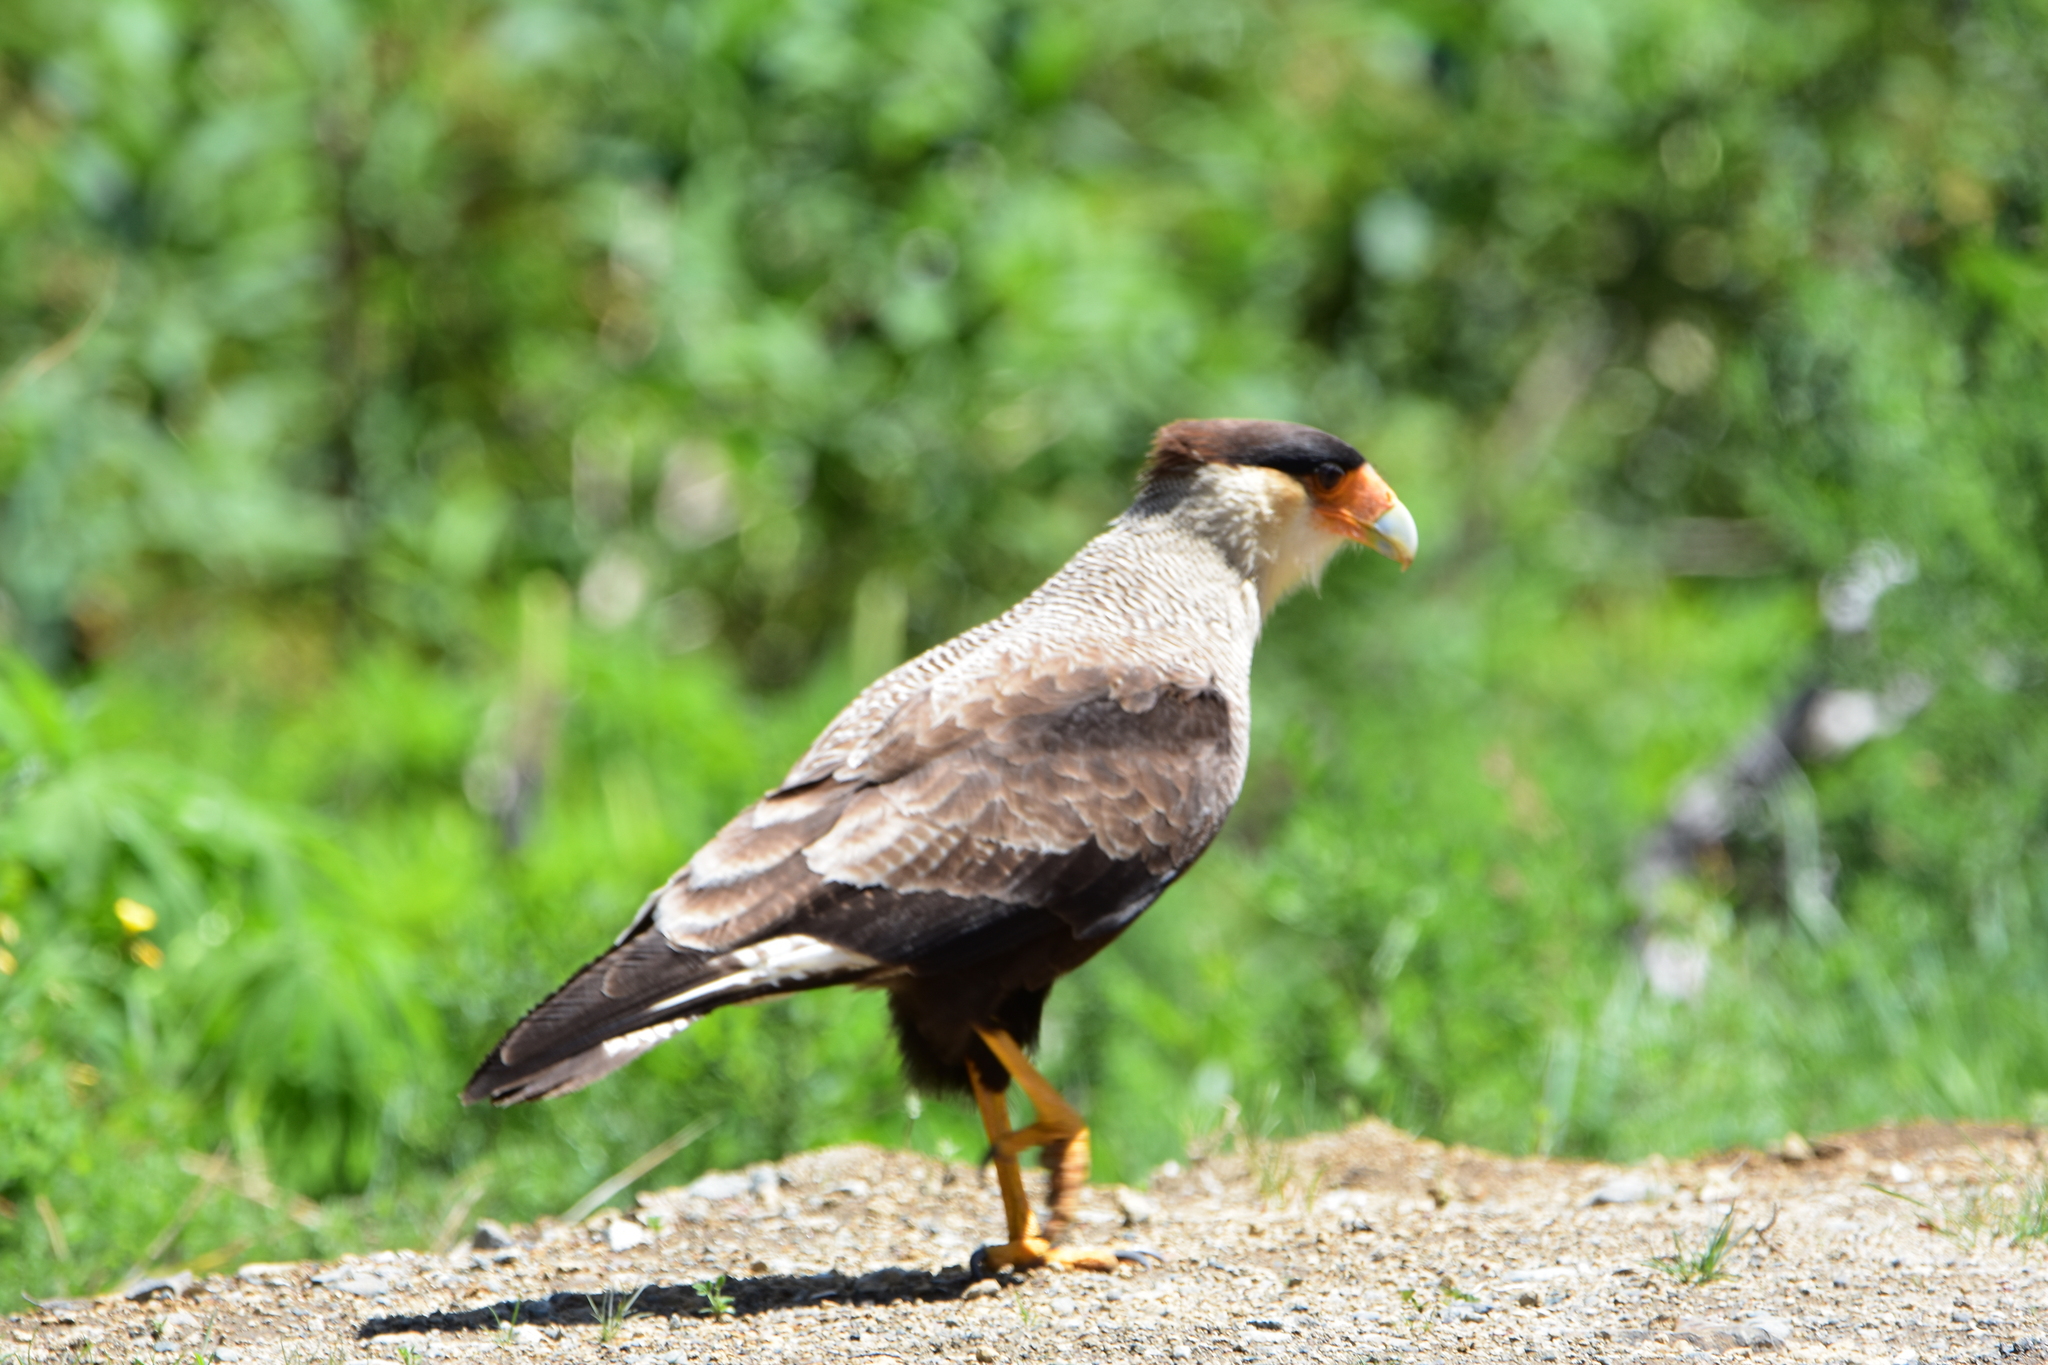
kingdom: Animalia
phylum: Chordata
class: Aves
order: Falconiformes
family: Falconidae
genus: Caracara
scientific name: Caracara plancus
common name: Southern caracara
